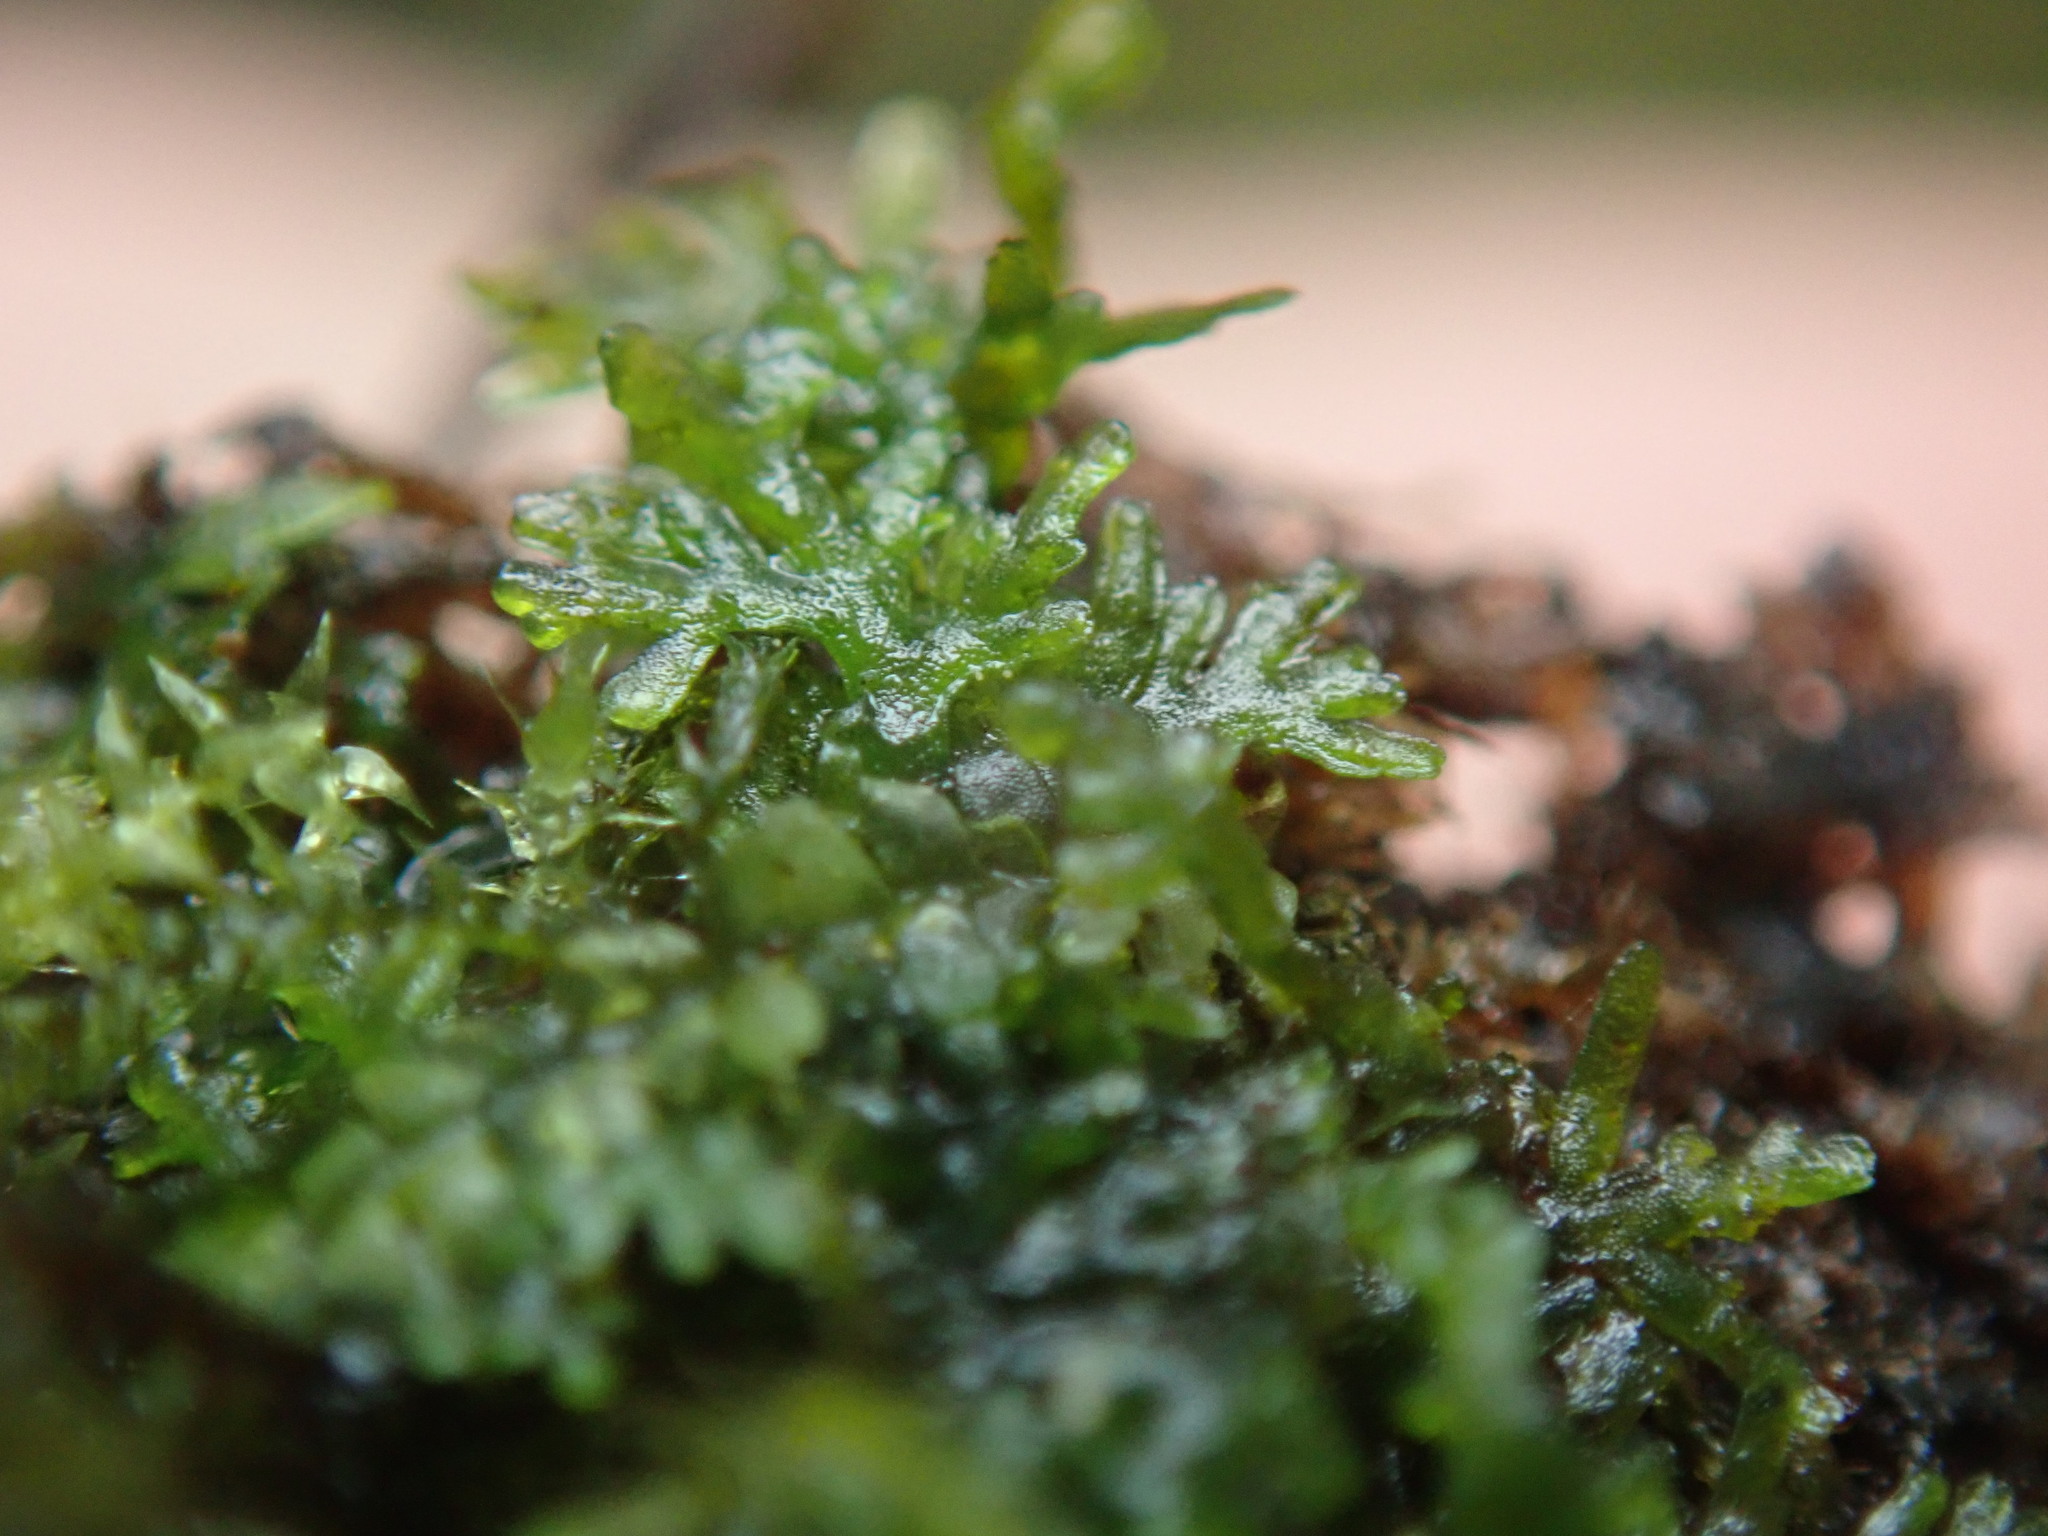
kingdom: Plantae
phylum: Marchantiophyta
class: Jungermanniopsida
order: Metzgeriales
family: Aneuraceae
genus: Riccardia
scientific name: Riccardia chamedryfolia
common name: Jagged germanderwort
